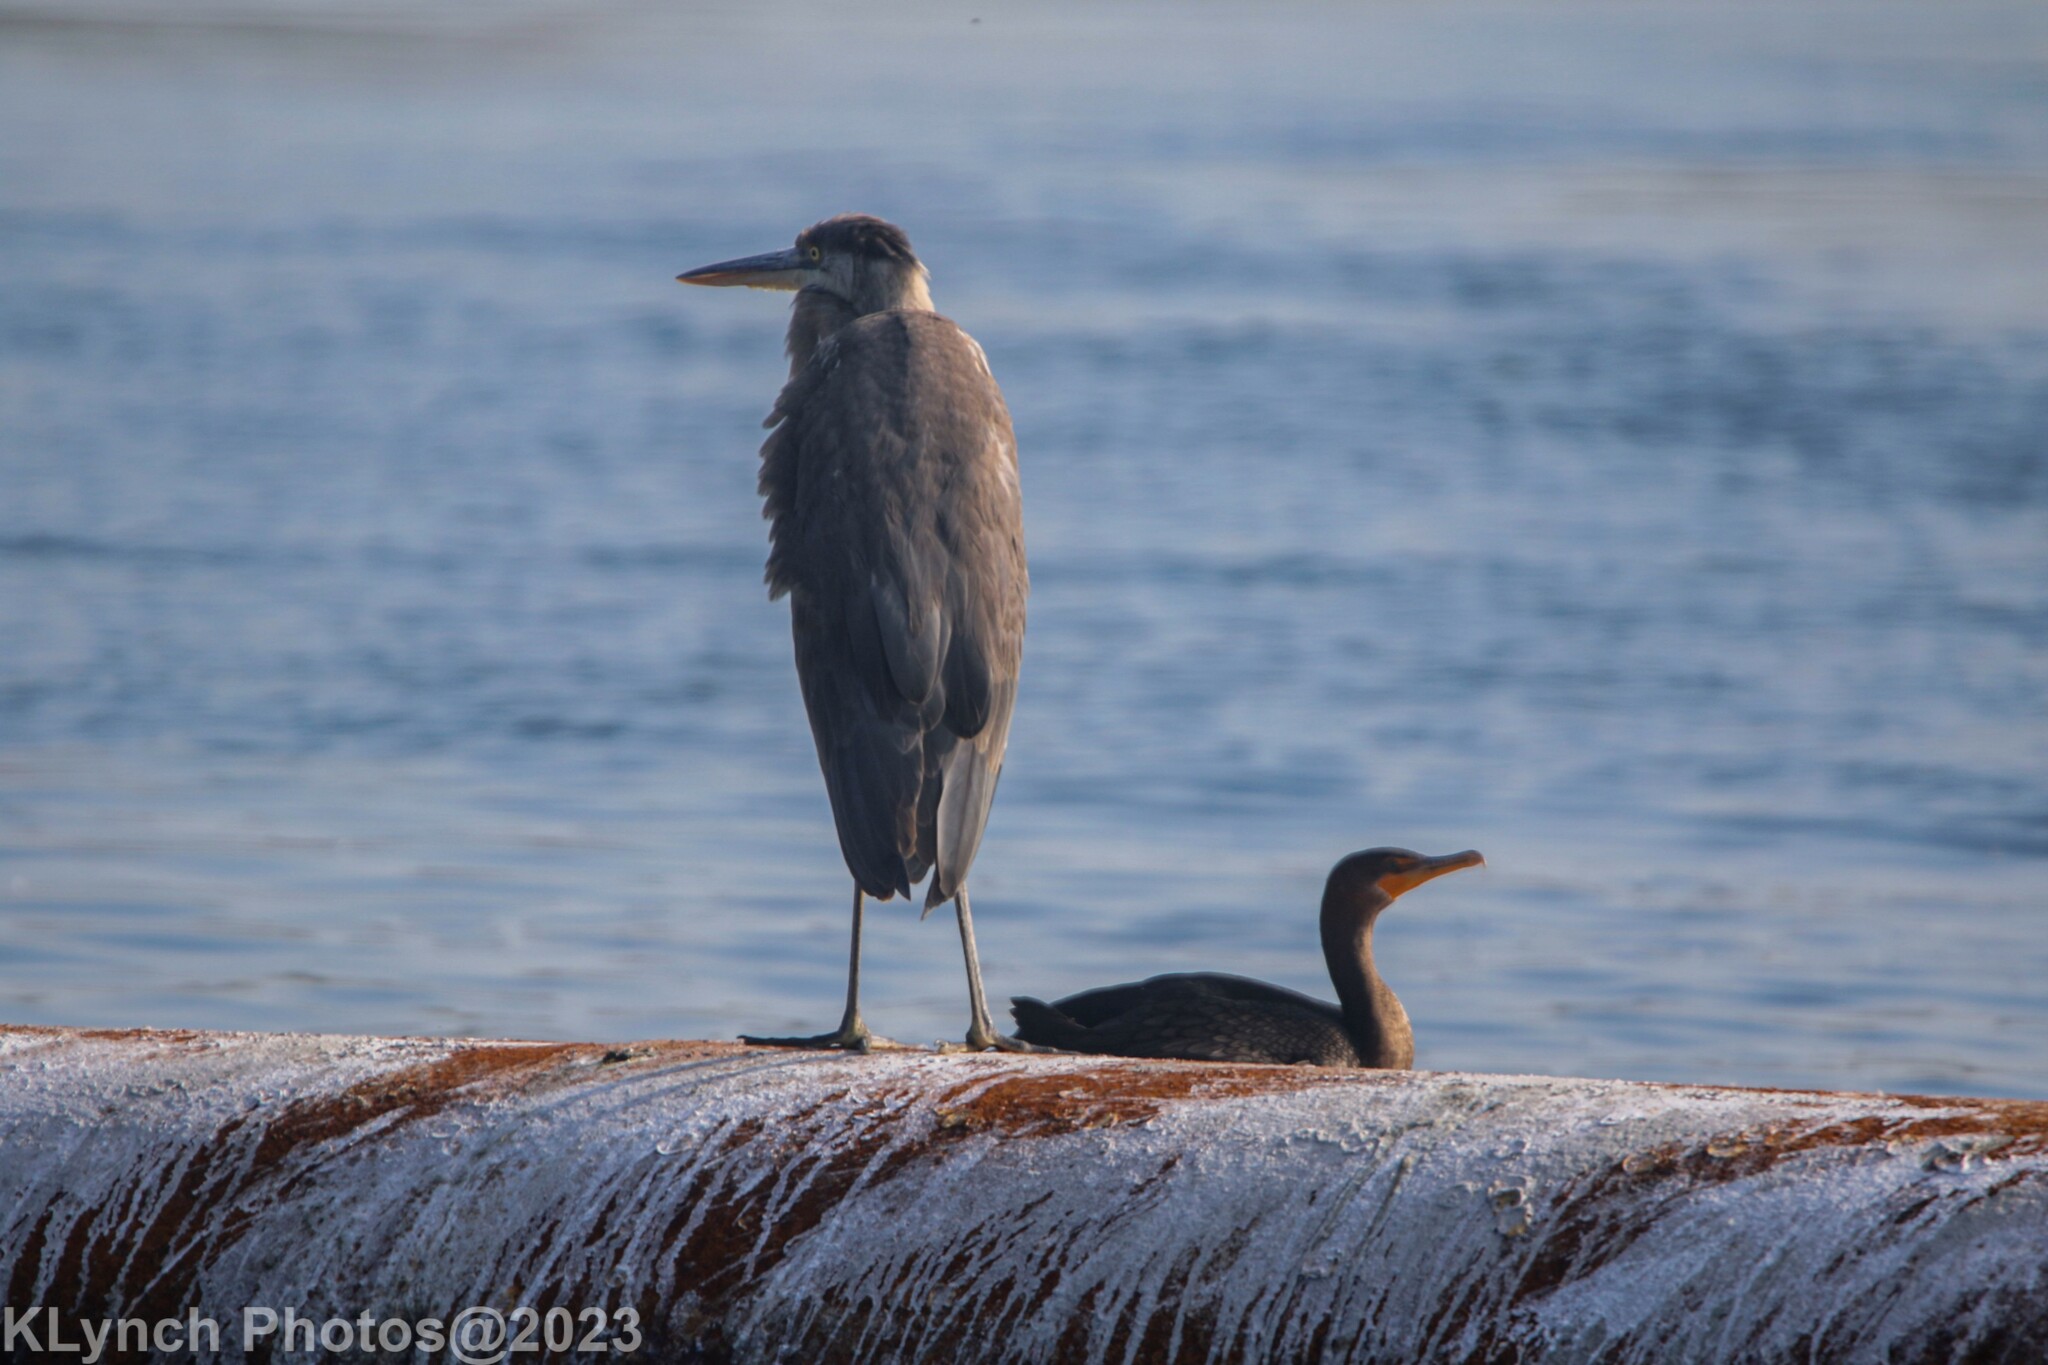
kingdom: Animalia
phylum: Chordata
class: Aves
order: Pelecaniformes
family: Ardeidae
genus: Ardea
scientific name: Ardea herodias
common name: Great blue heron
